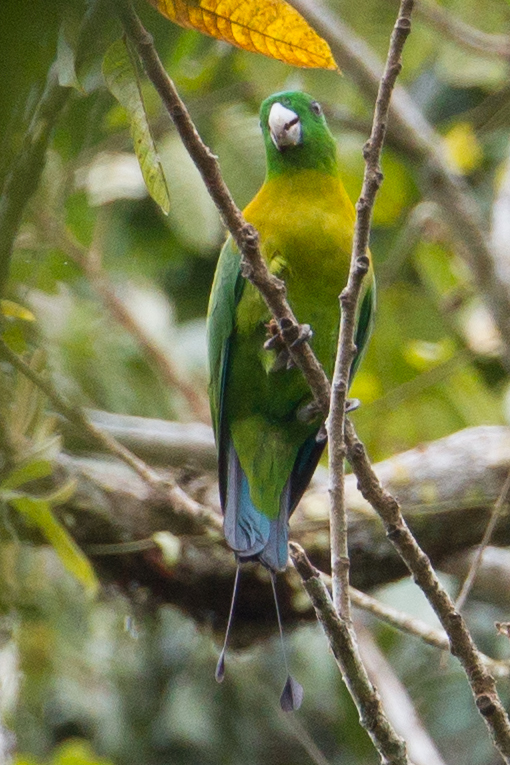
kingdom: Animalia
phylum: Chordata
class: Aves
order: Psittaciformes
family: Psittacidae
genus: Prioniturus
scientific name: Prioniturus flavicans
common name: Yellow-breasted racket-tail
